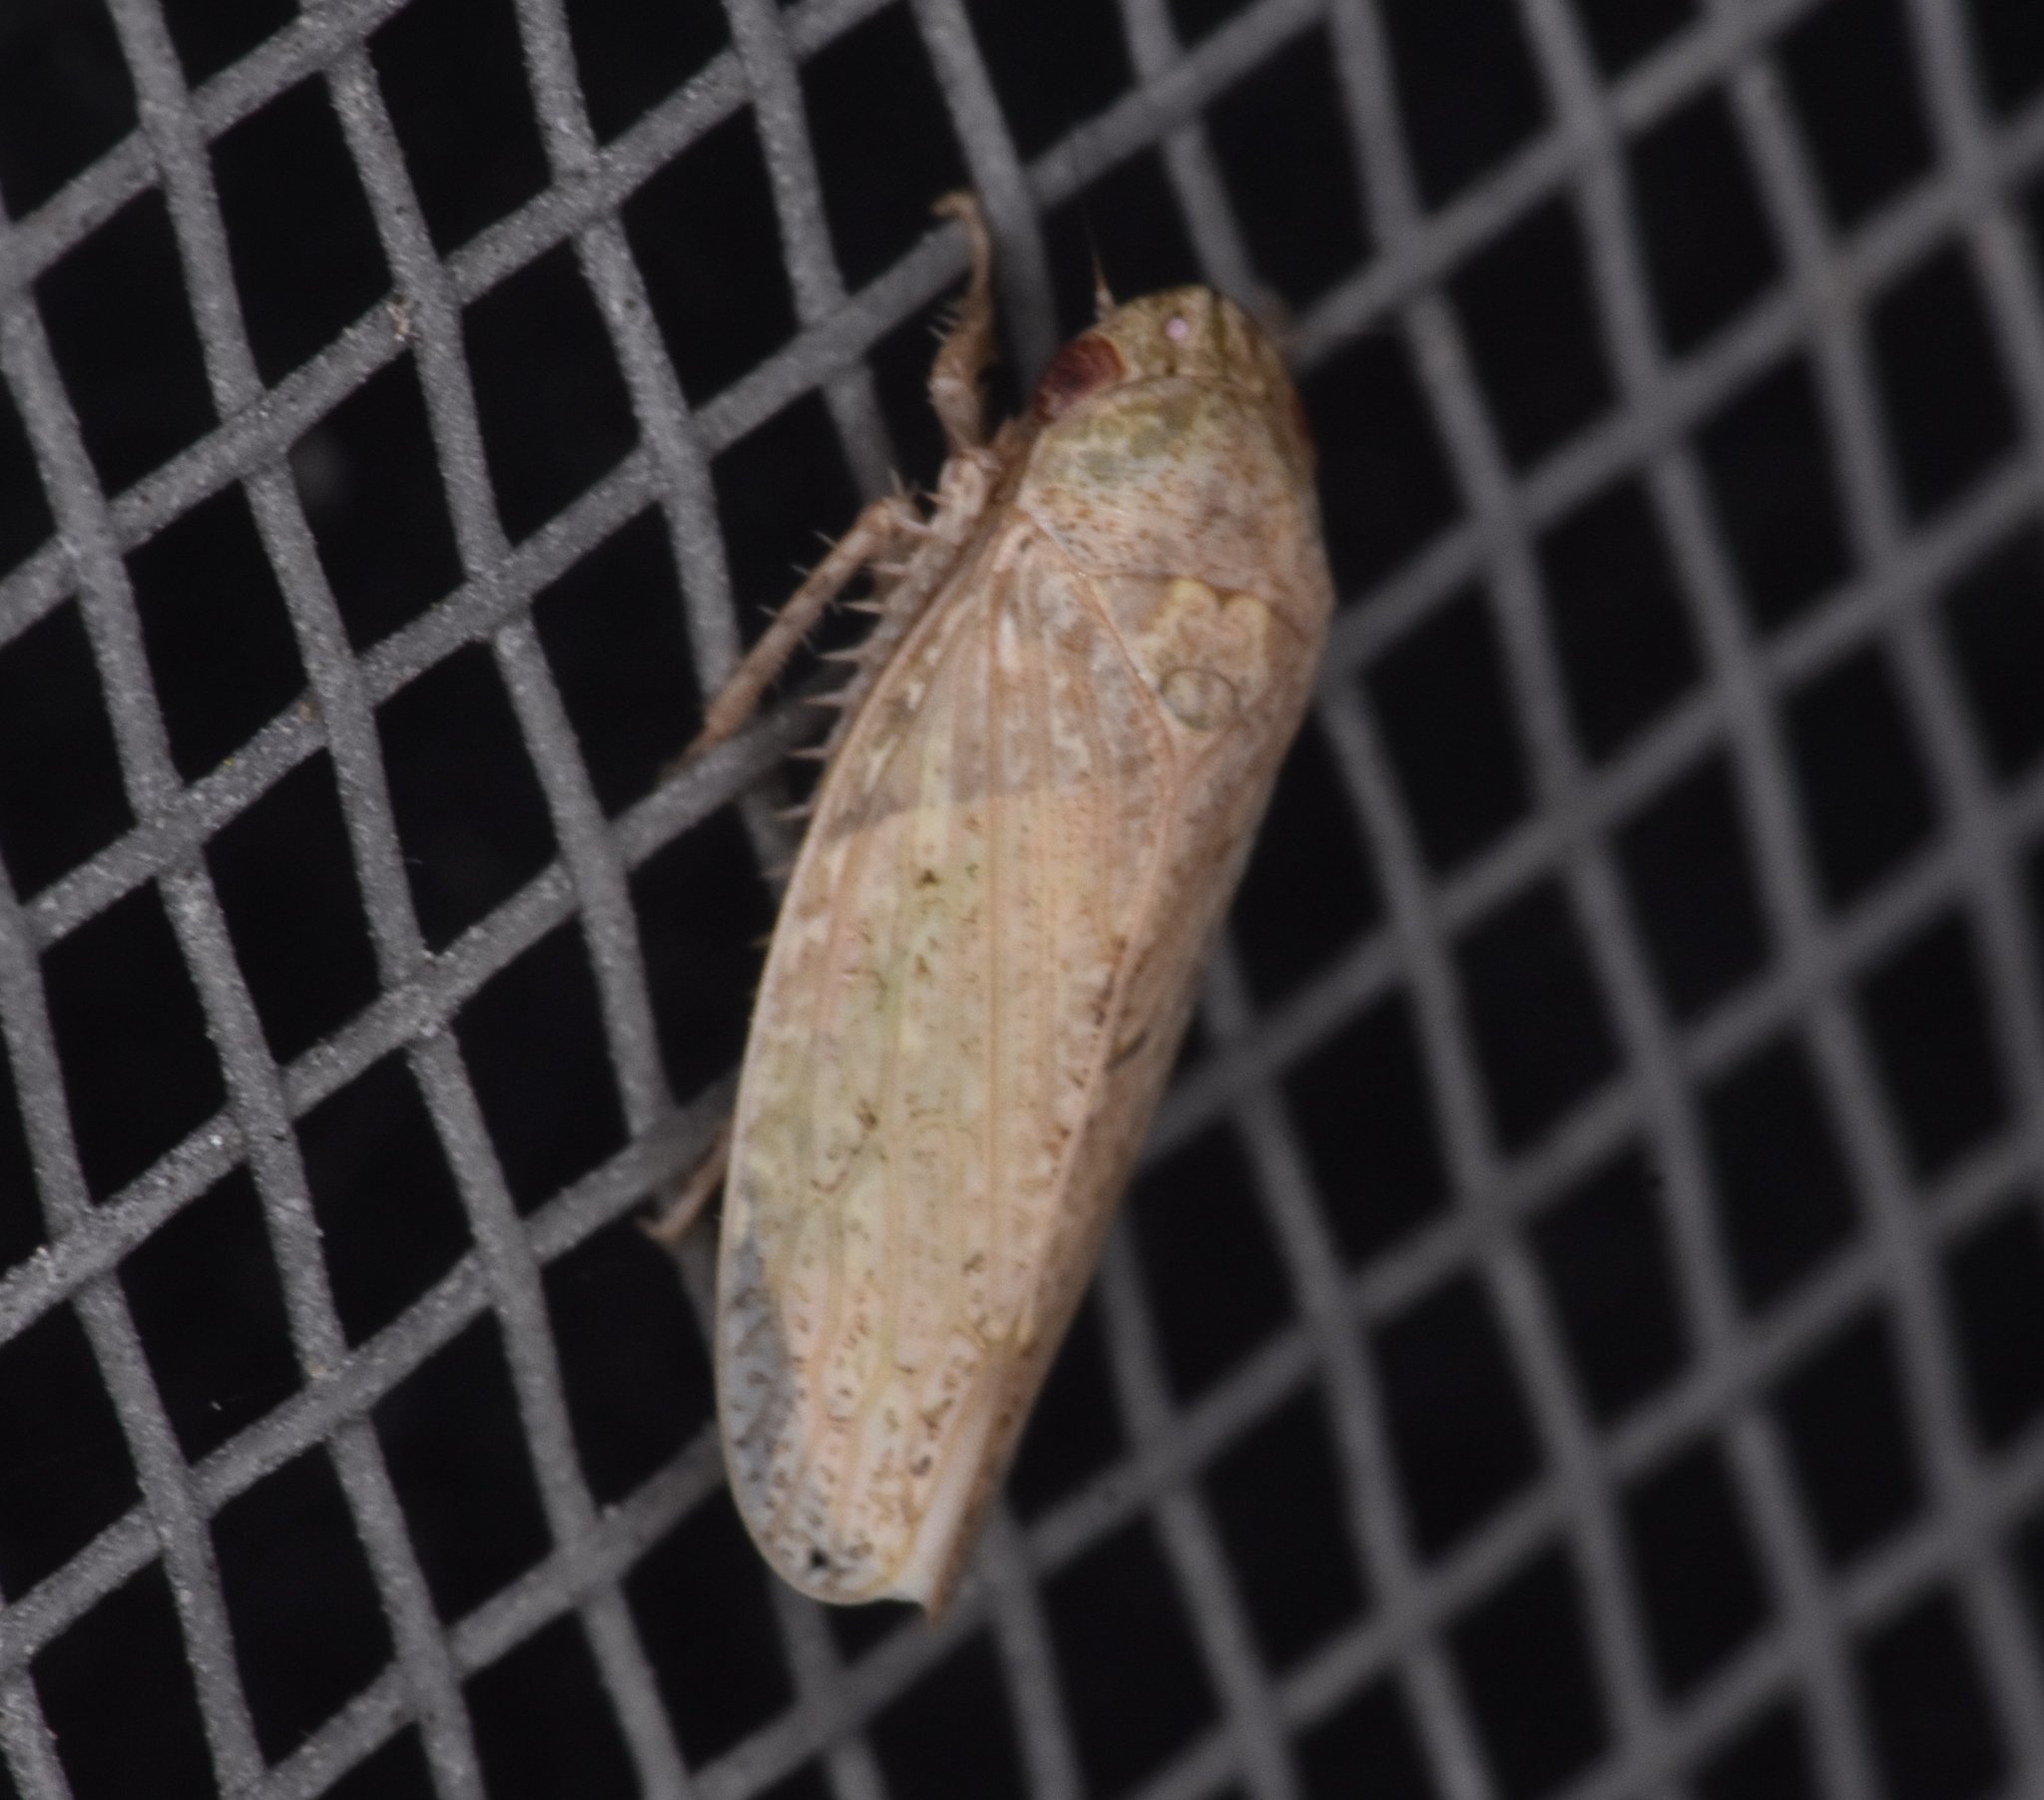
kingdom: Animalia
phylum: Arthropoda
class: Insecta
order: Hemiptera
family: Cicadellidae
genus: Curtara
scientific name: Curtara insularis
